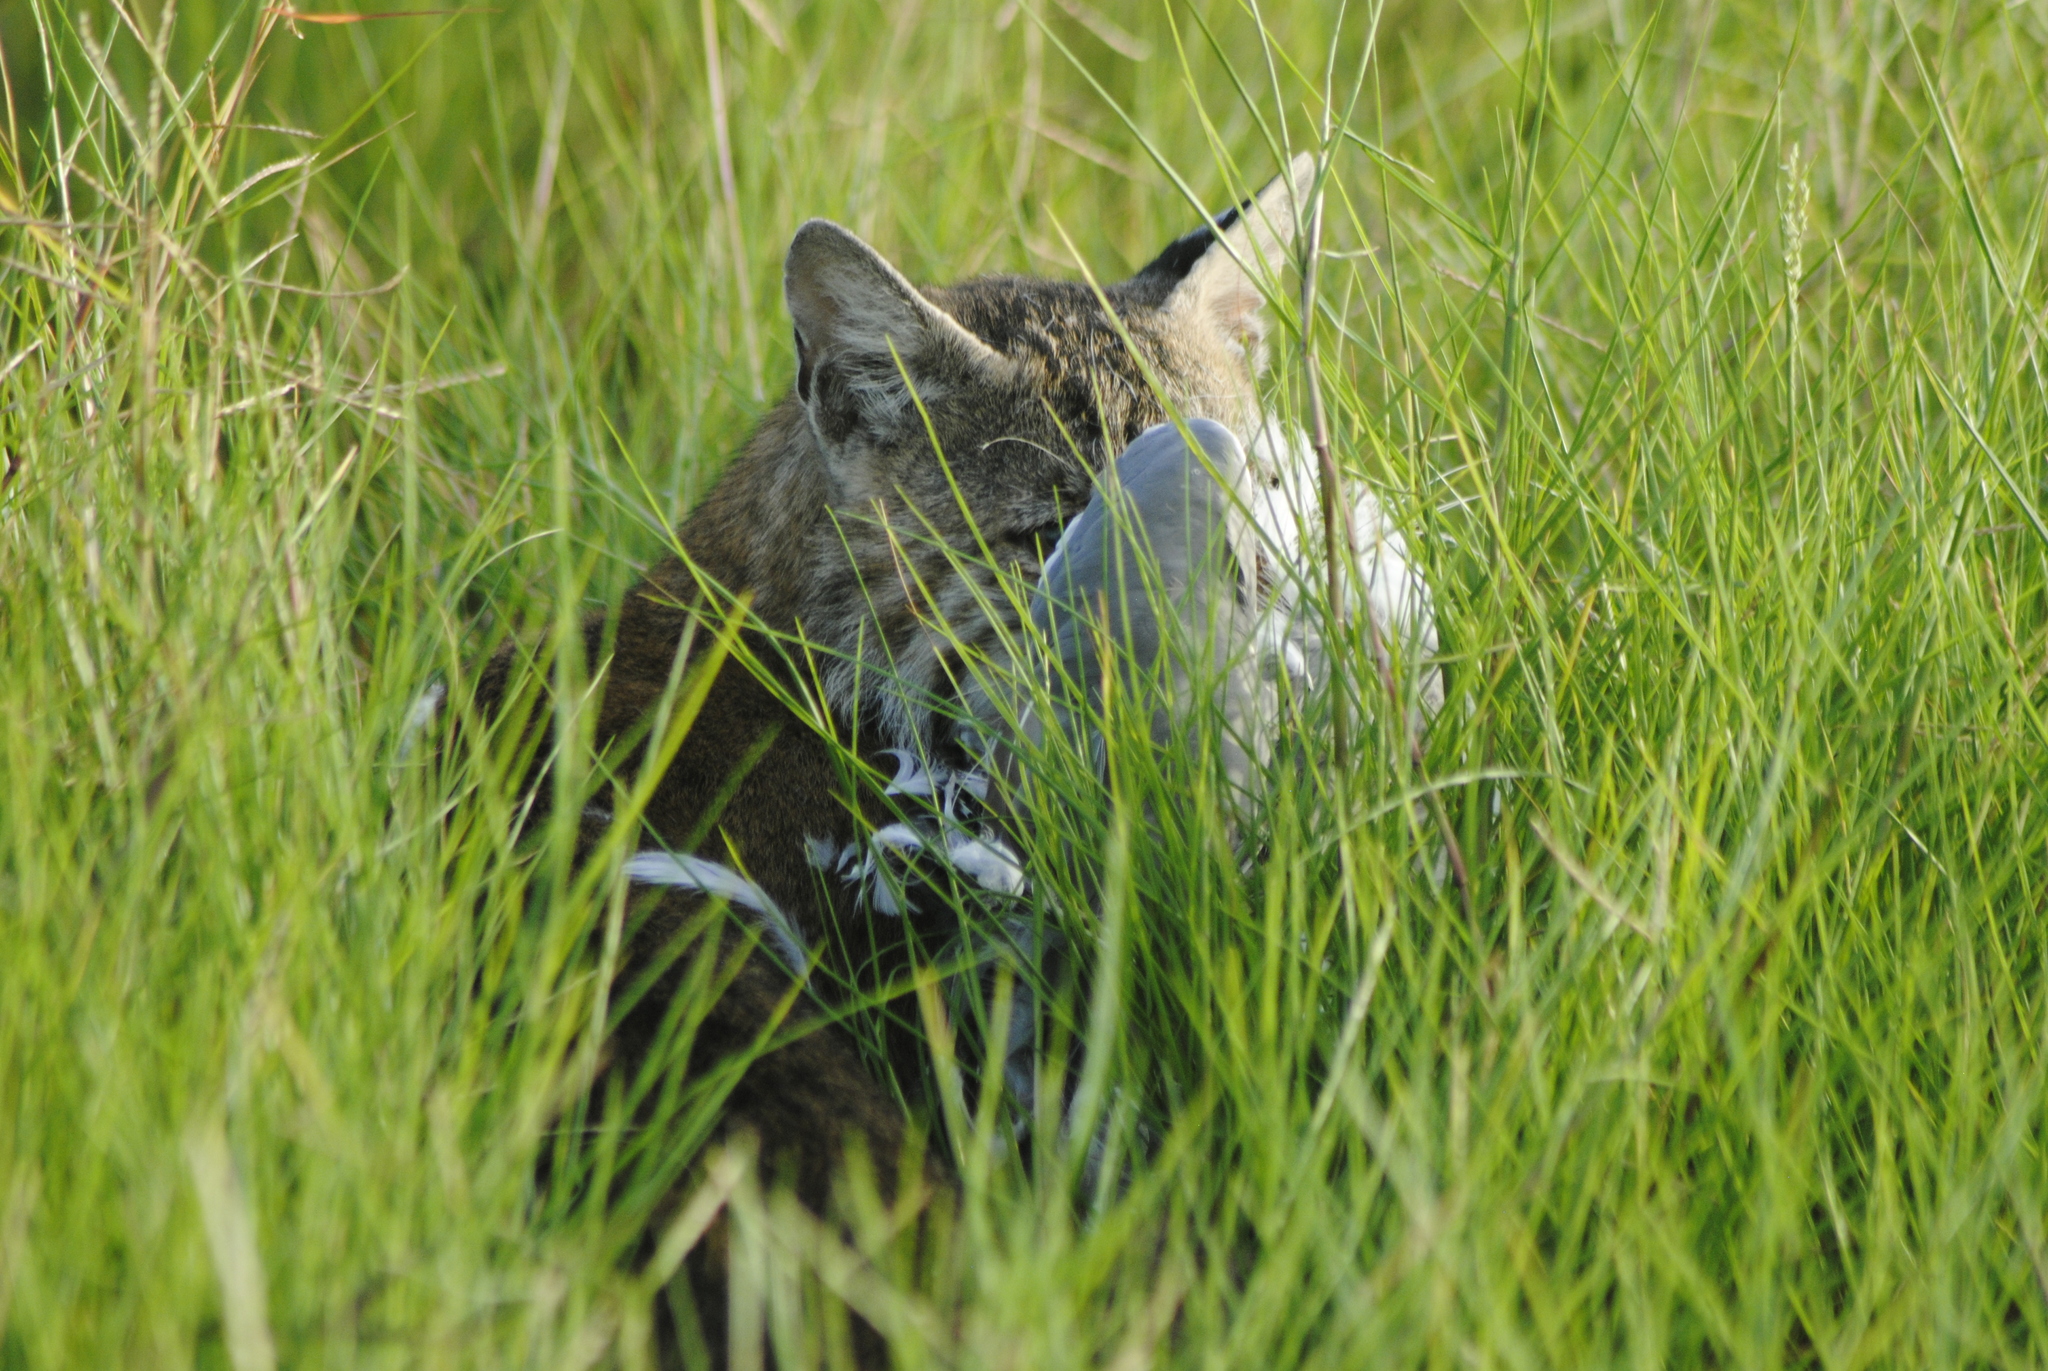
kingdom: Animalia
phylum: Chordata
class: Mammalia
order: Carnivora
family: Felidae
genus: Lynx
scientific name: Lynx rufus
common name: Bobcat
